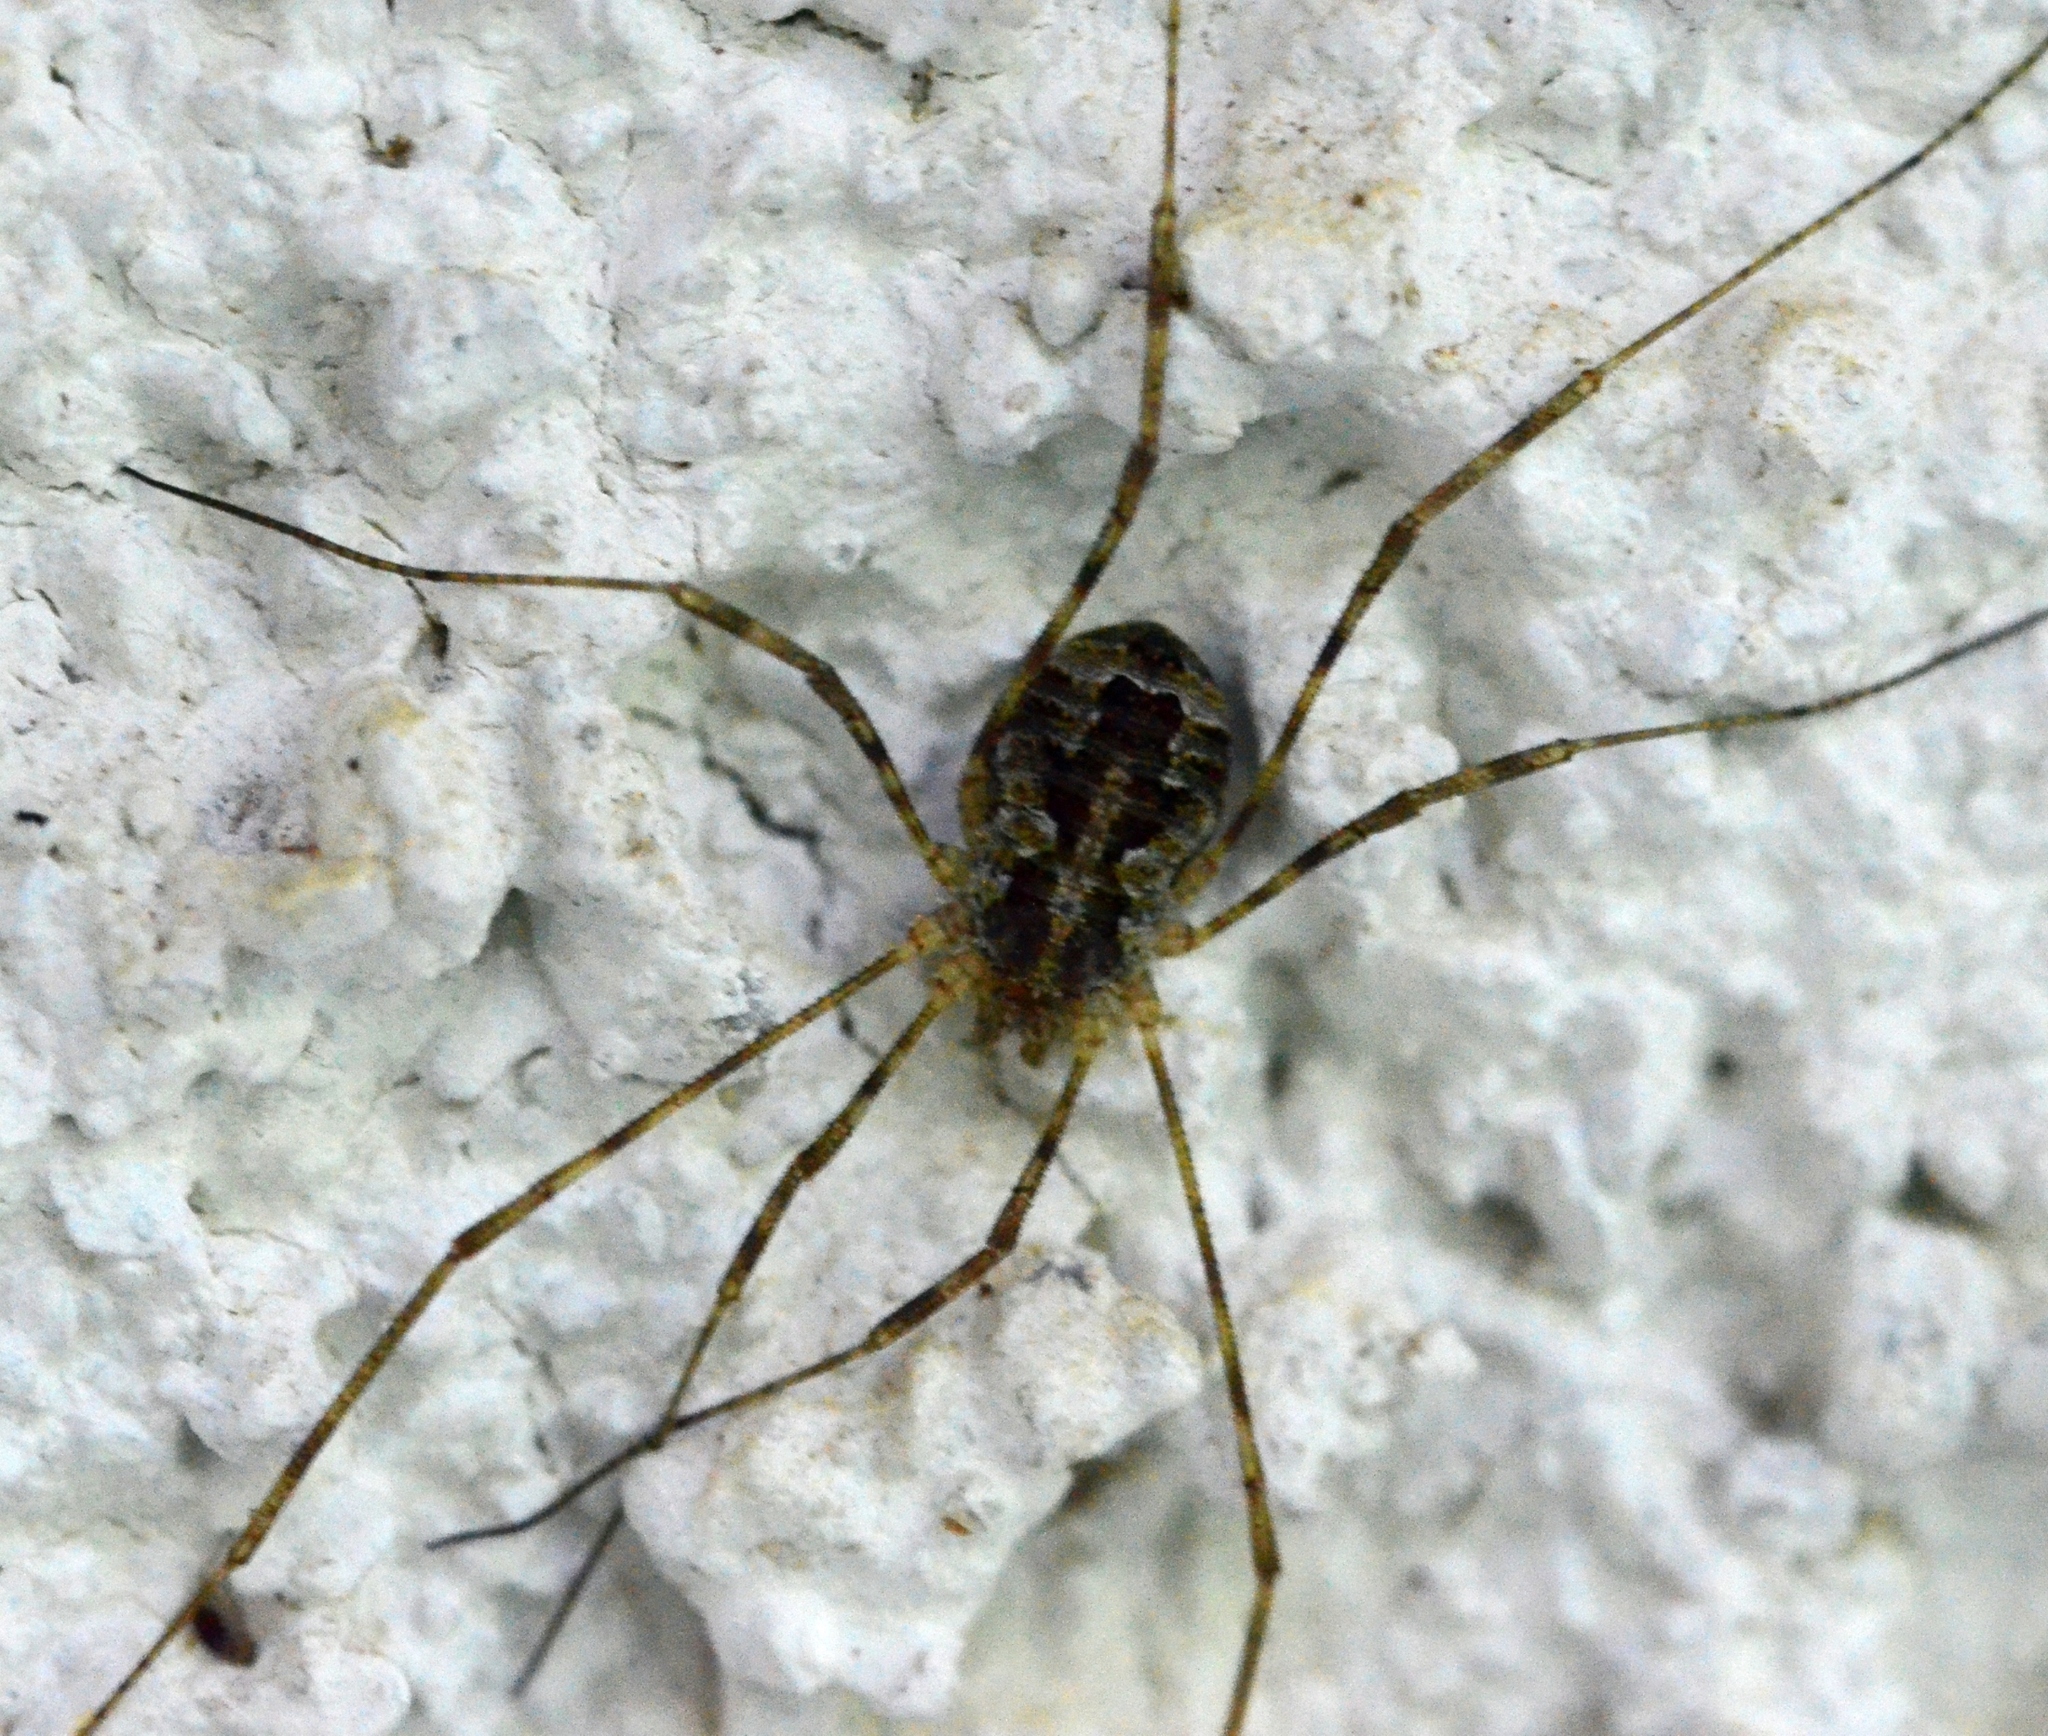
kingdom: Animalia
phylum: Arthropoda
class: Arachnida
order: Opiliones
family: Phalangiidae
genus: Lacinius
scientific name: Lacinius dentiger
